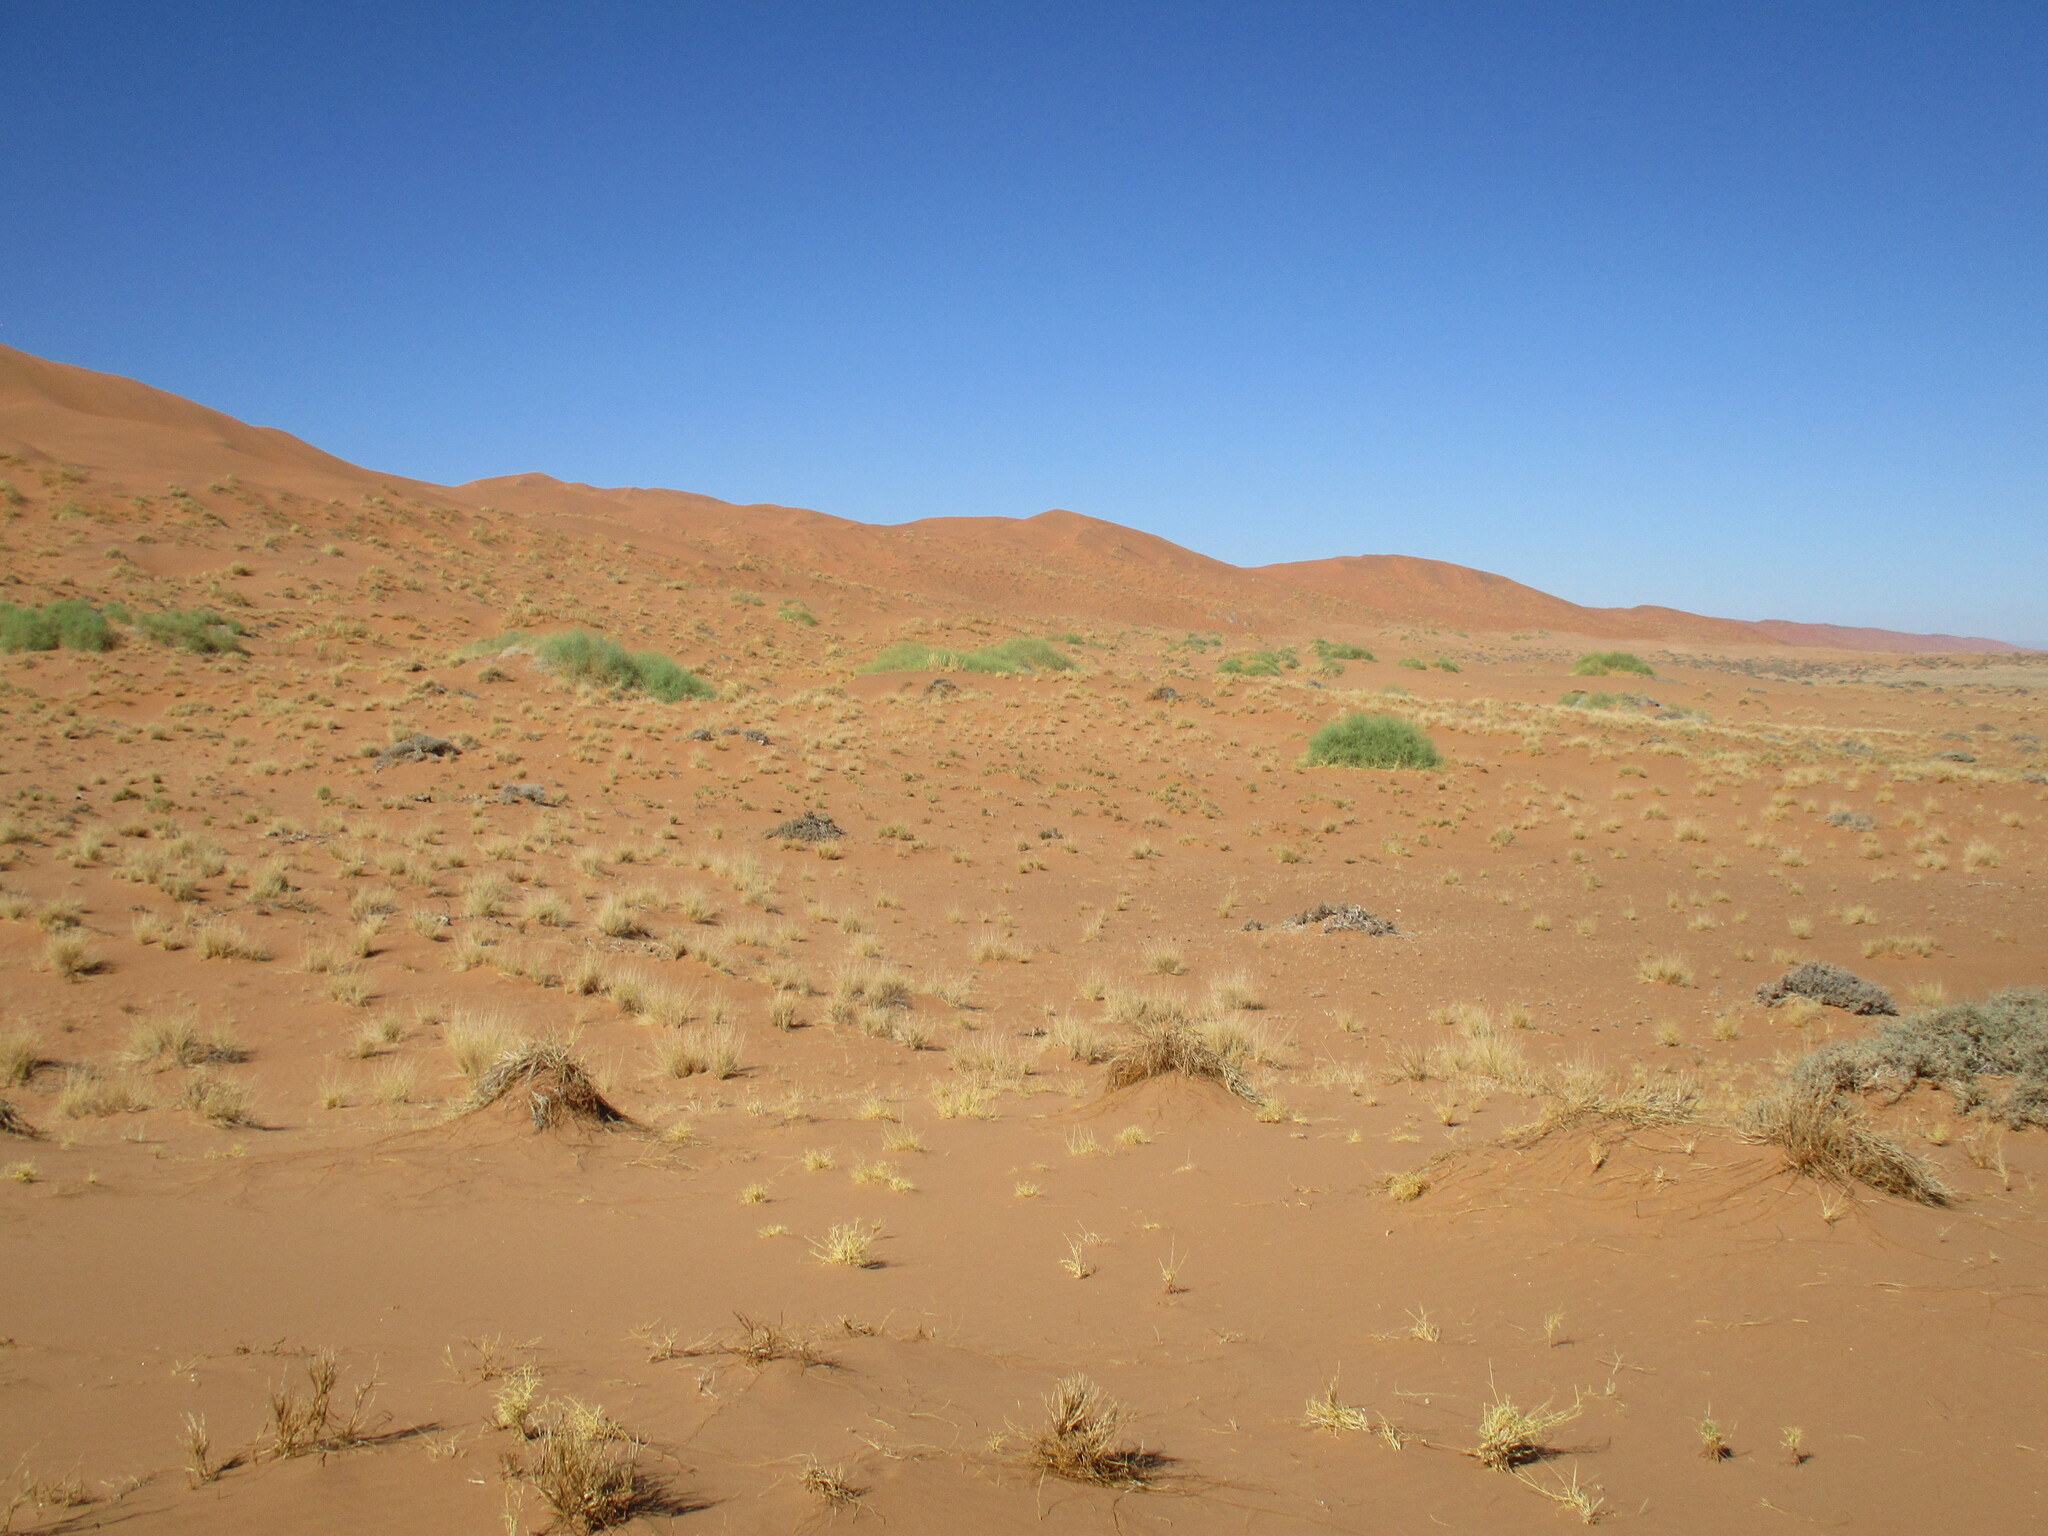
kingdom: Plantae
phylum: Tracheophyta
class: Magnoliopsida
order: Cucurbitales
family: Cucurbitaceae
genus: Acanthosicyos
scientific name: Acanthosicyos horridus
